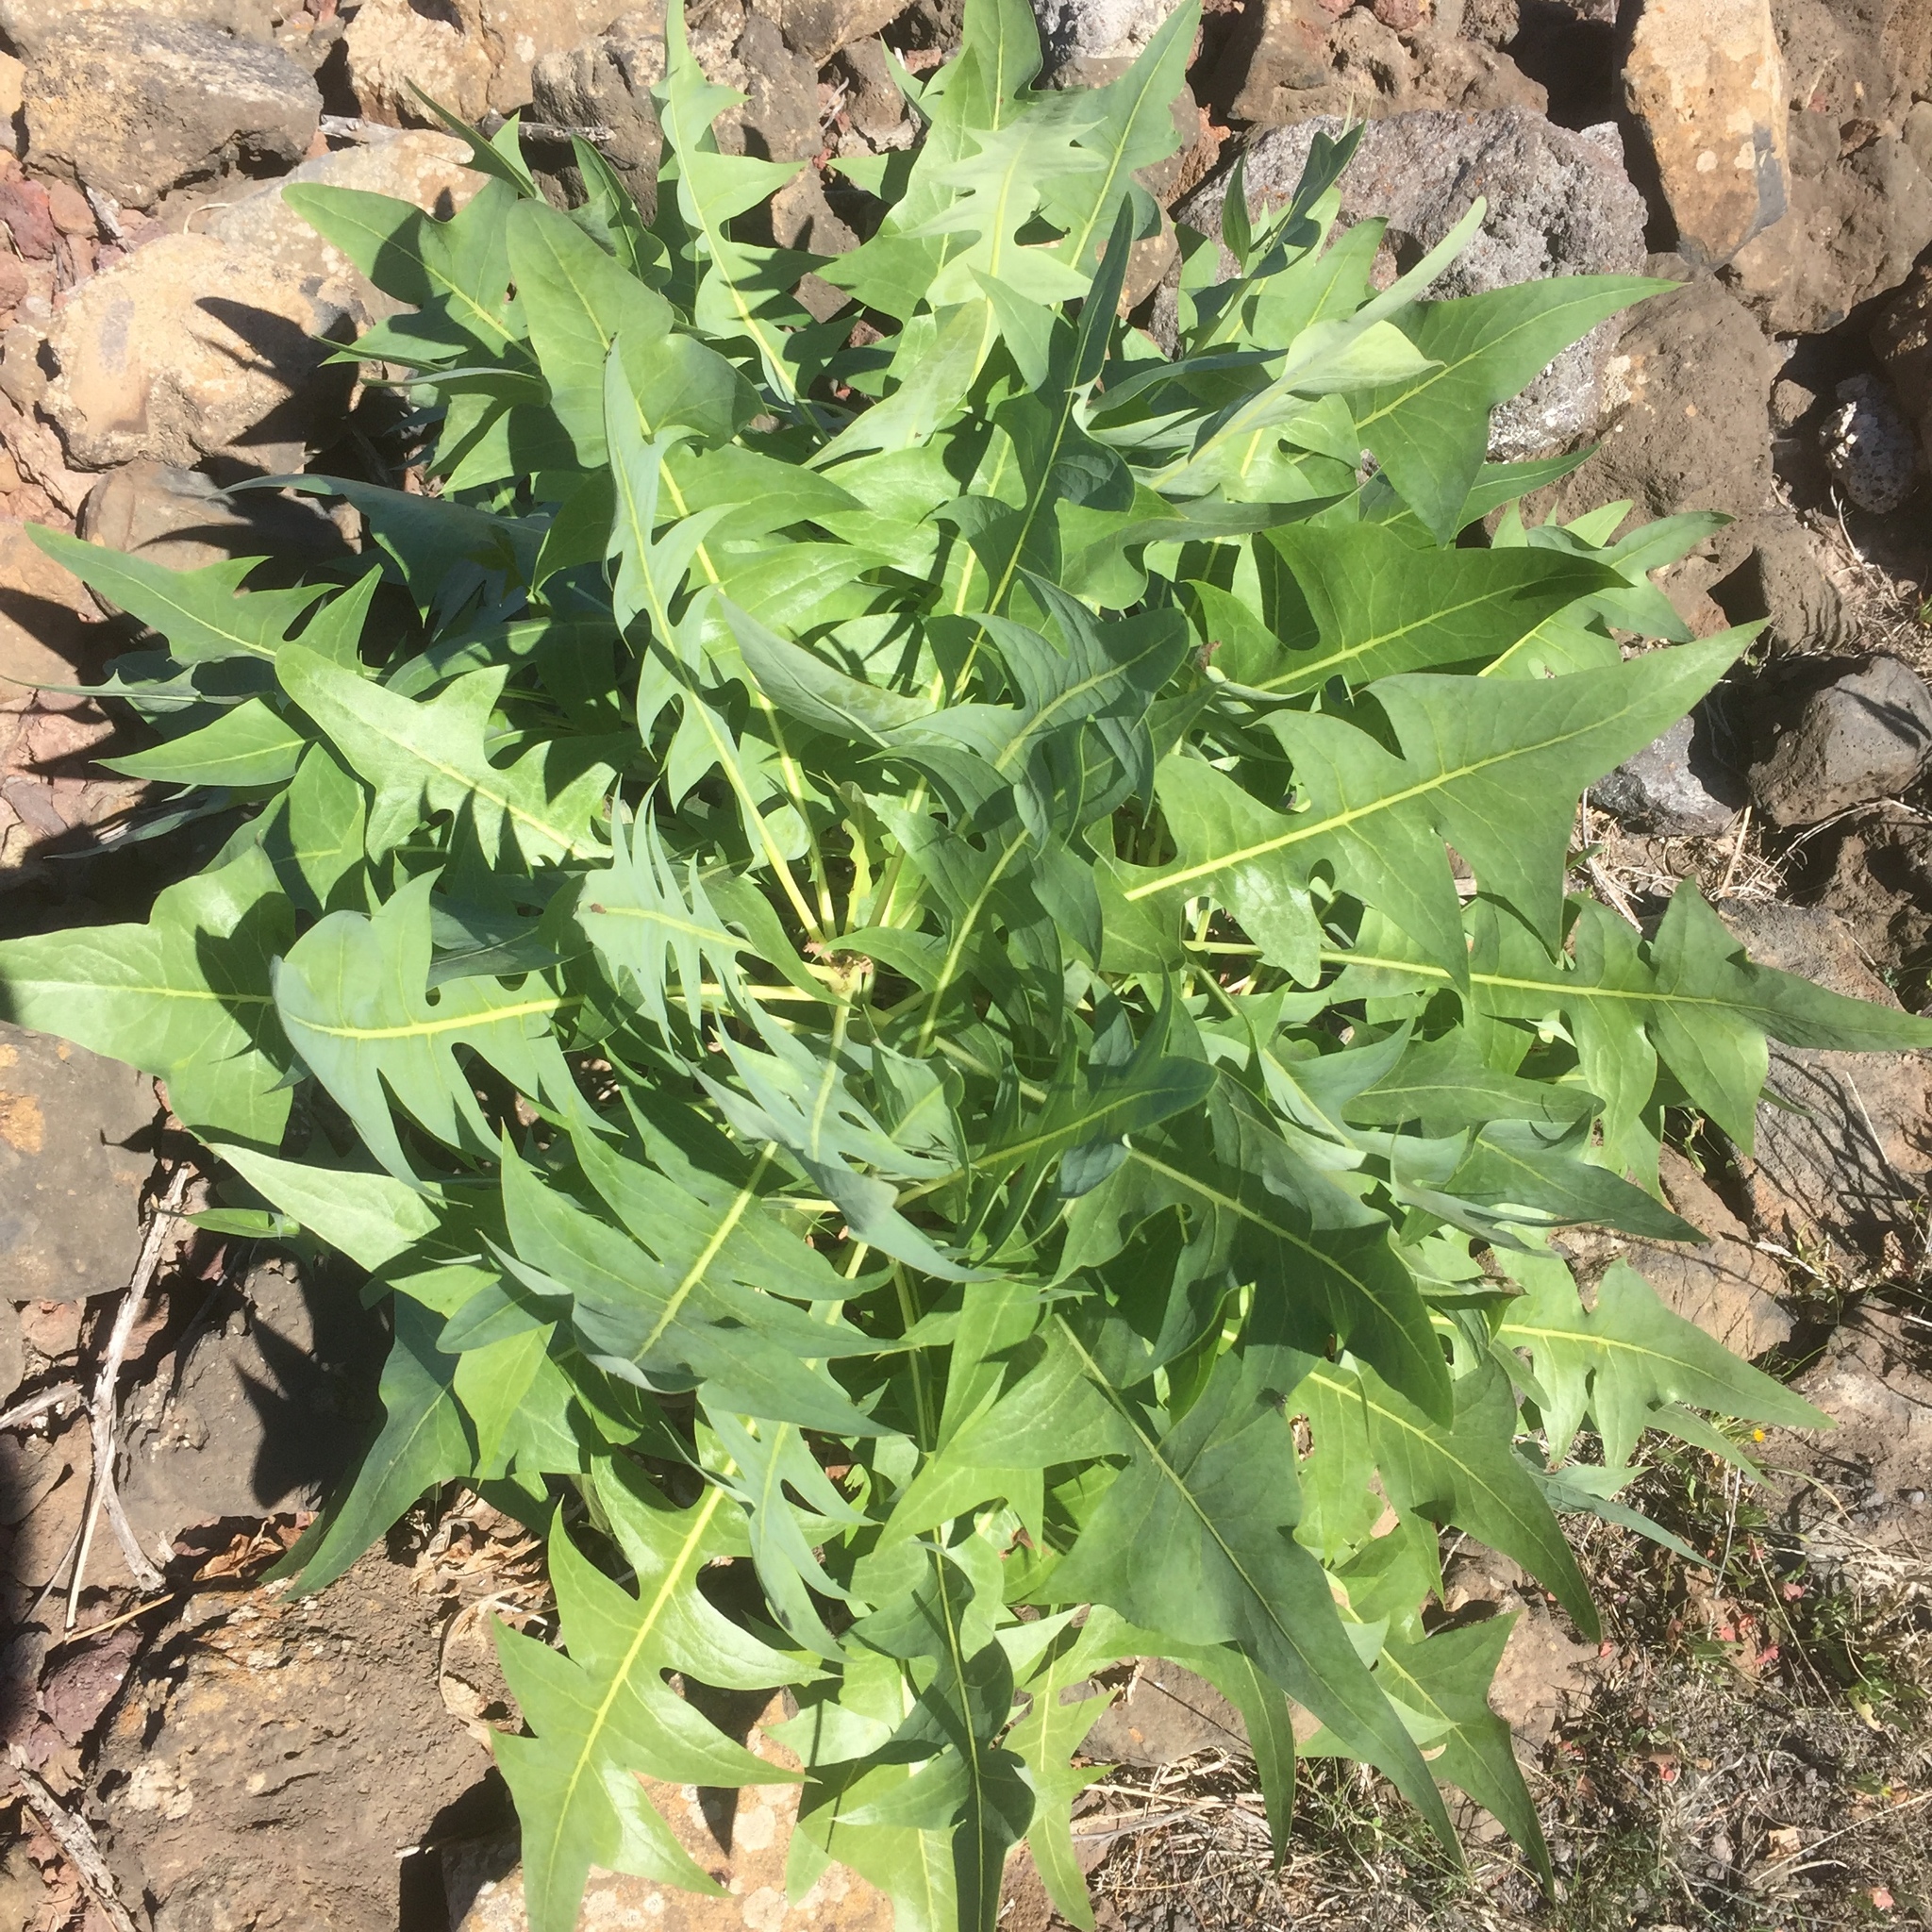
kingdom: Plantae
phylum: Tracheophyta
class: Magnoliopsida
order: Asterales
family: Asteraceae
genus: Sonchus
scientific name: Sonchus pinnatifidus
